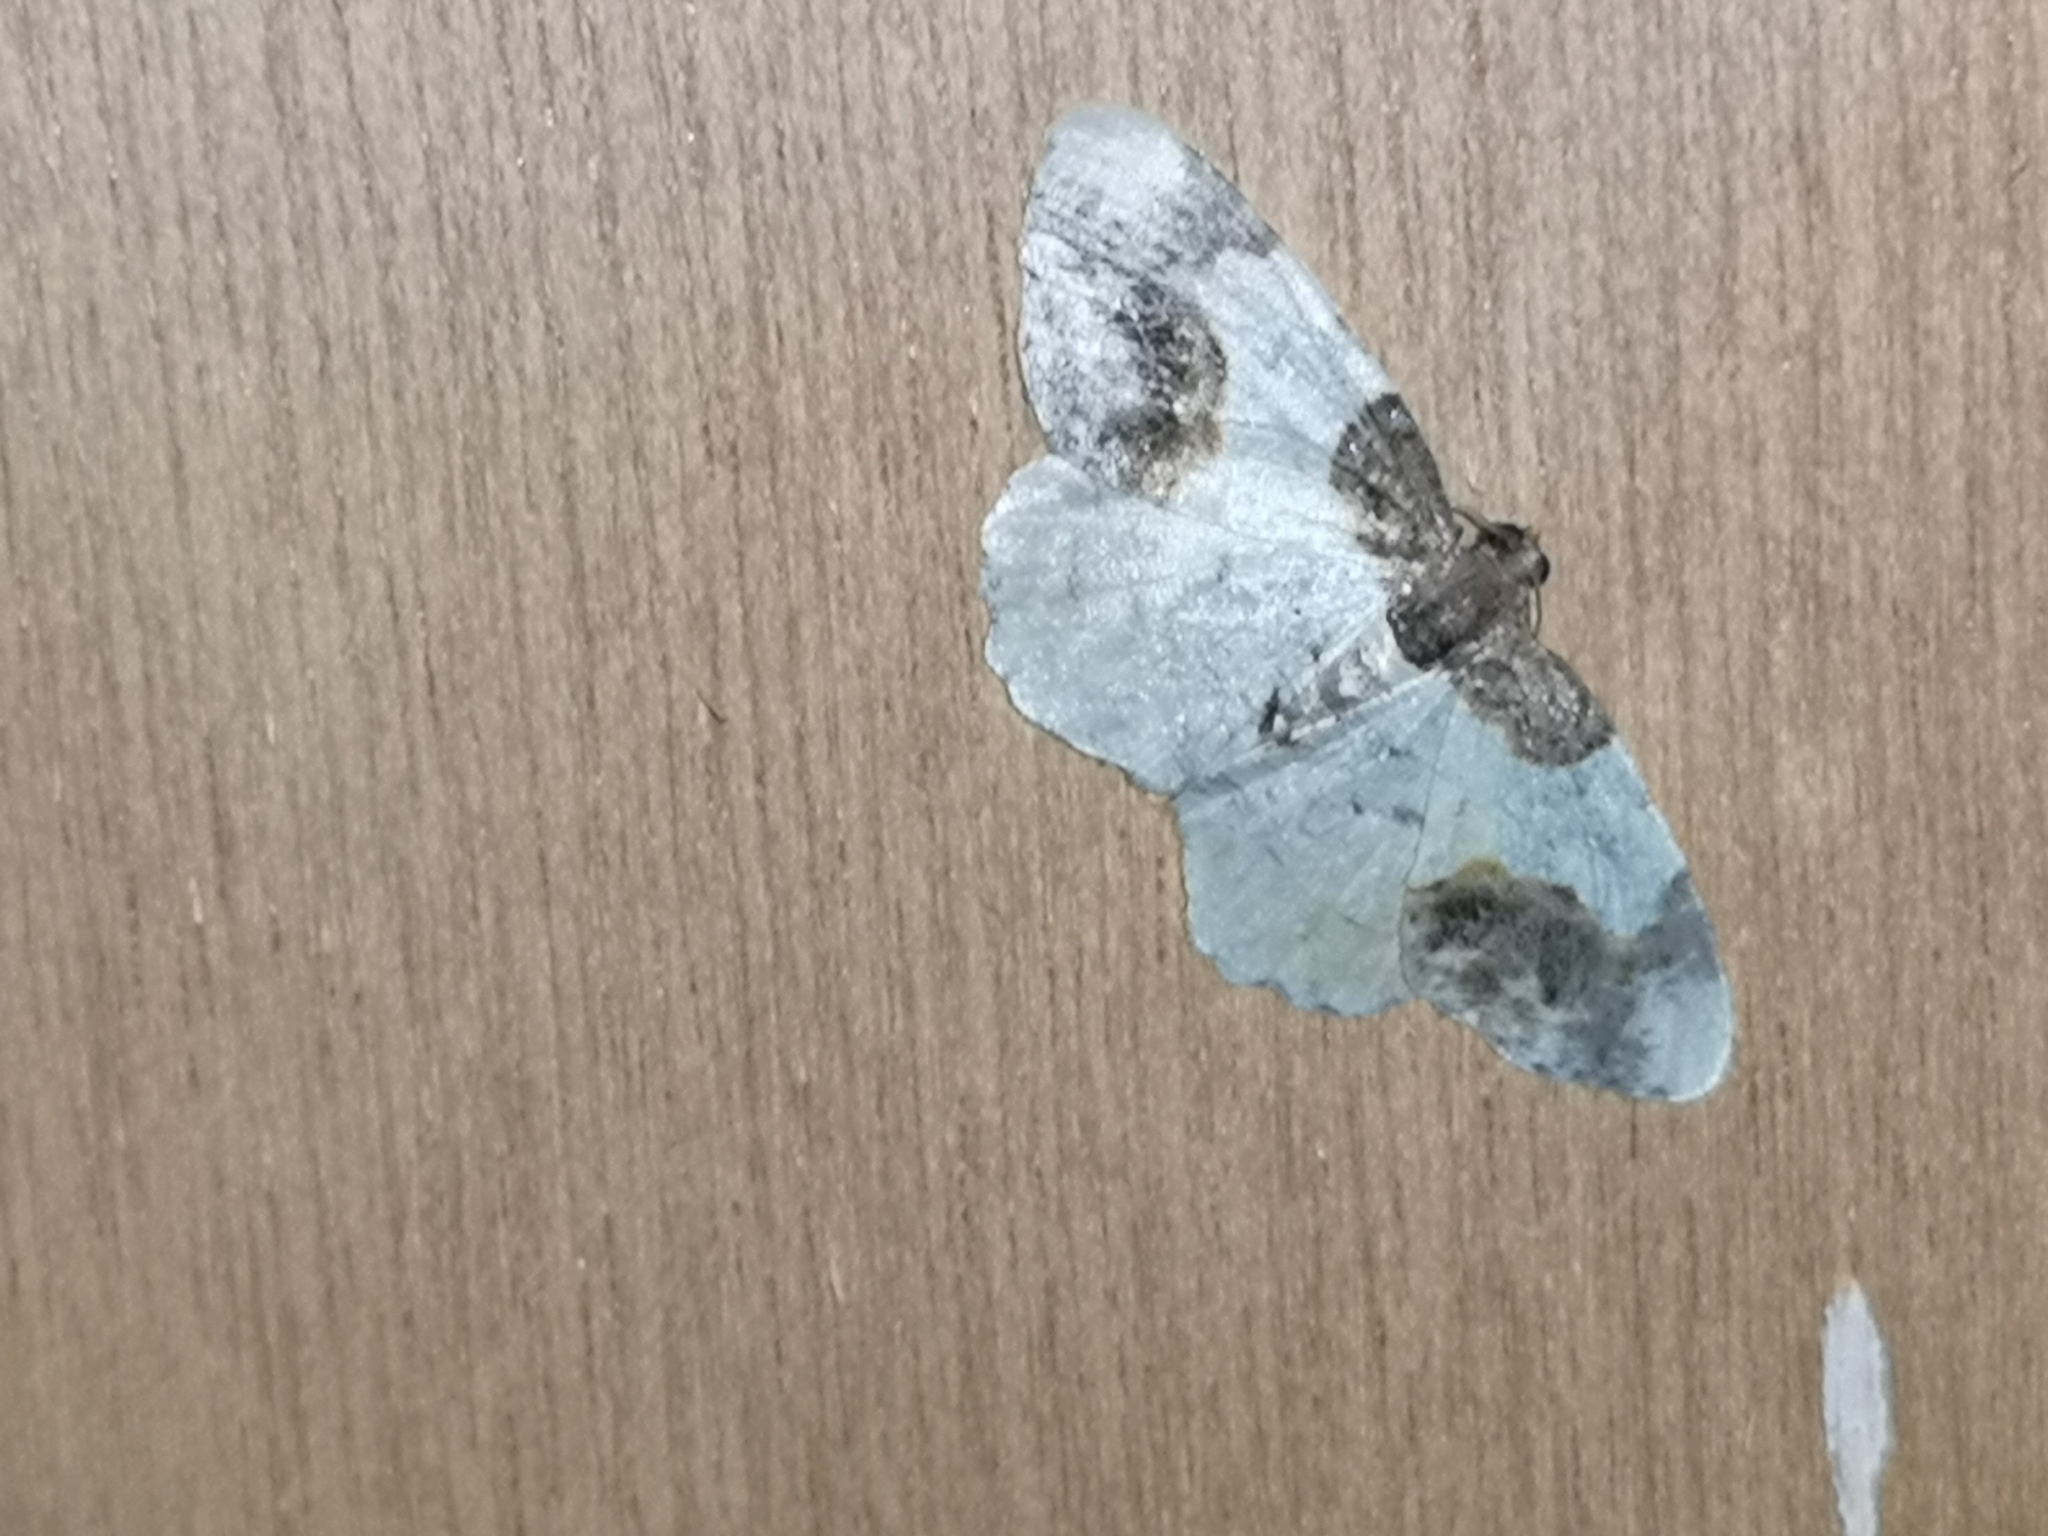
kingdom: Animalia
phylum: Arthropoda
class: Insecta
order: Lepidoptera
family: Geometridae
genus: Ligdia
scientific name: Ligdia adustata
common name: Scorched carpet
